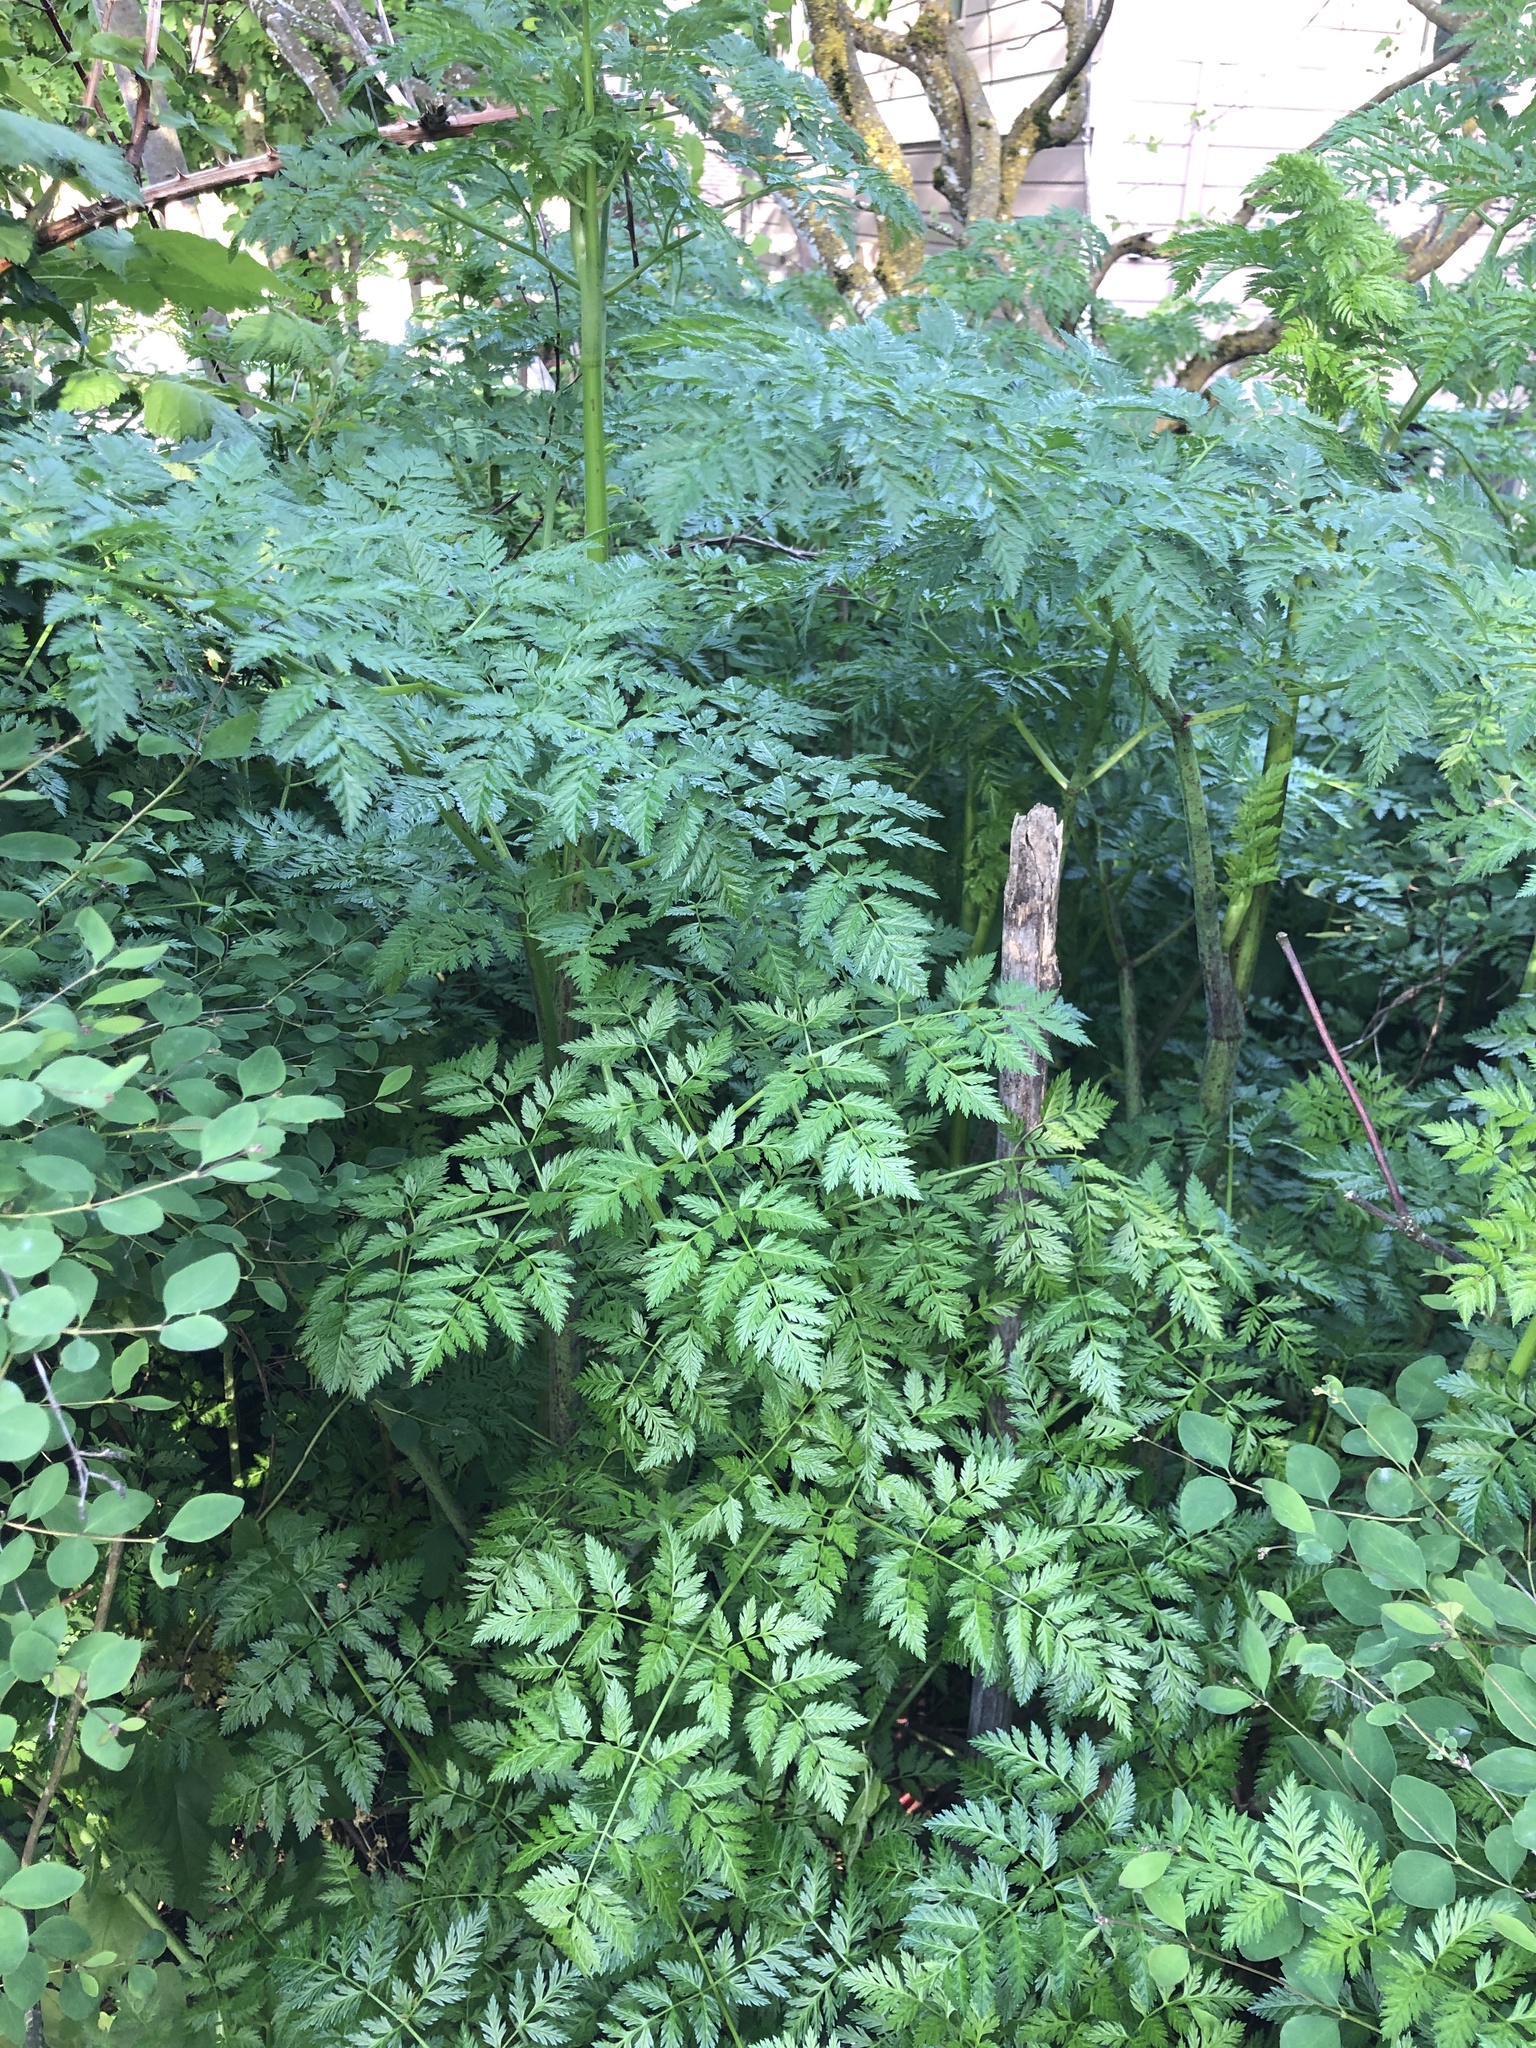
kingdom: Plantae
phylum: Tracheophyta
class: Magnoliopsida
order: Apiales
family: Apiaceae
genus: Conium
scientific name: Conium maculatum
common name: Hemlock
